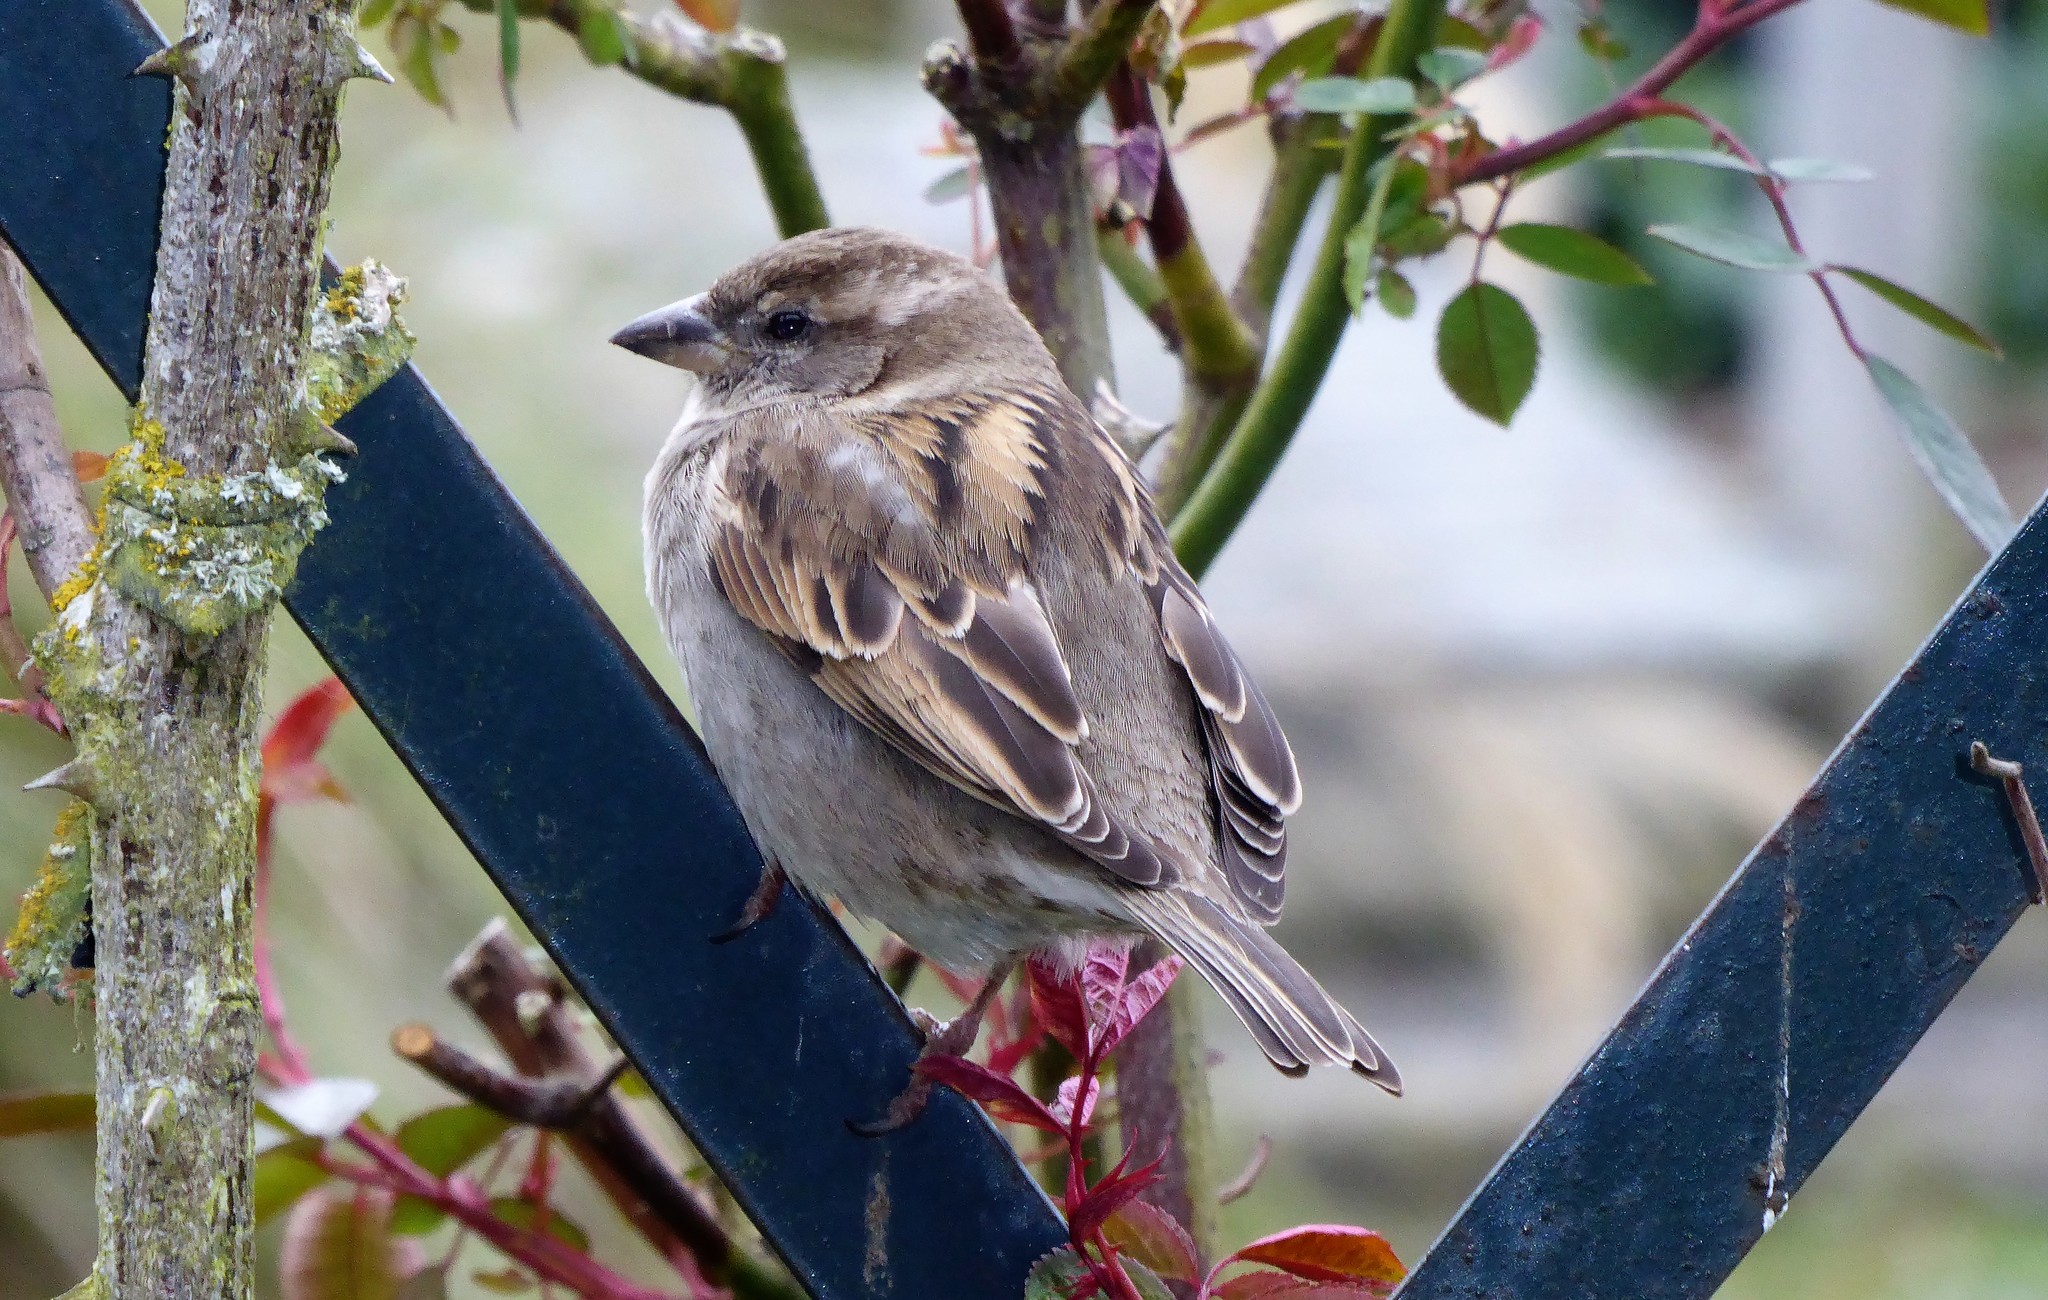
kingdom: Animalia
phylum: Chordata
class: Aves
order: Passeriformes
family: Passeridae
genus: Passer
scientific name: Passer domesticus
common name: House sparrow
